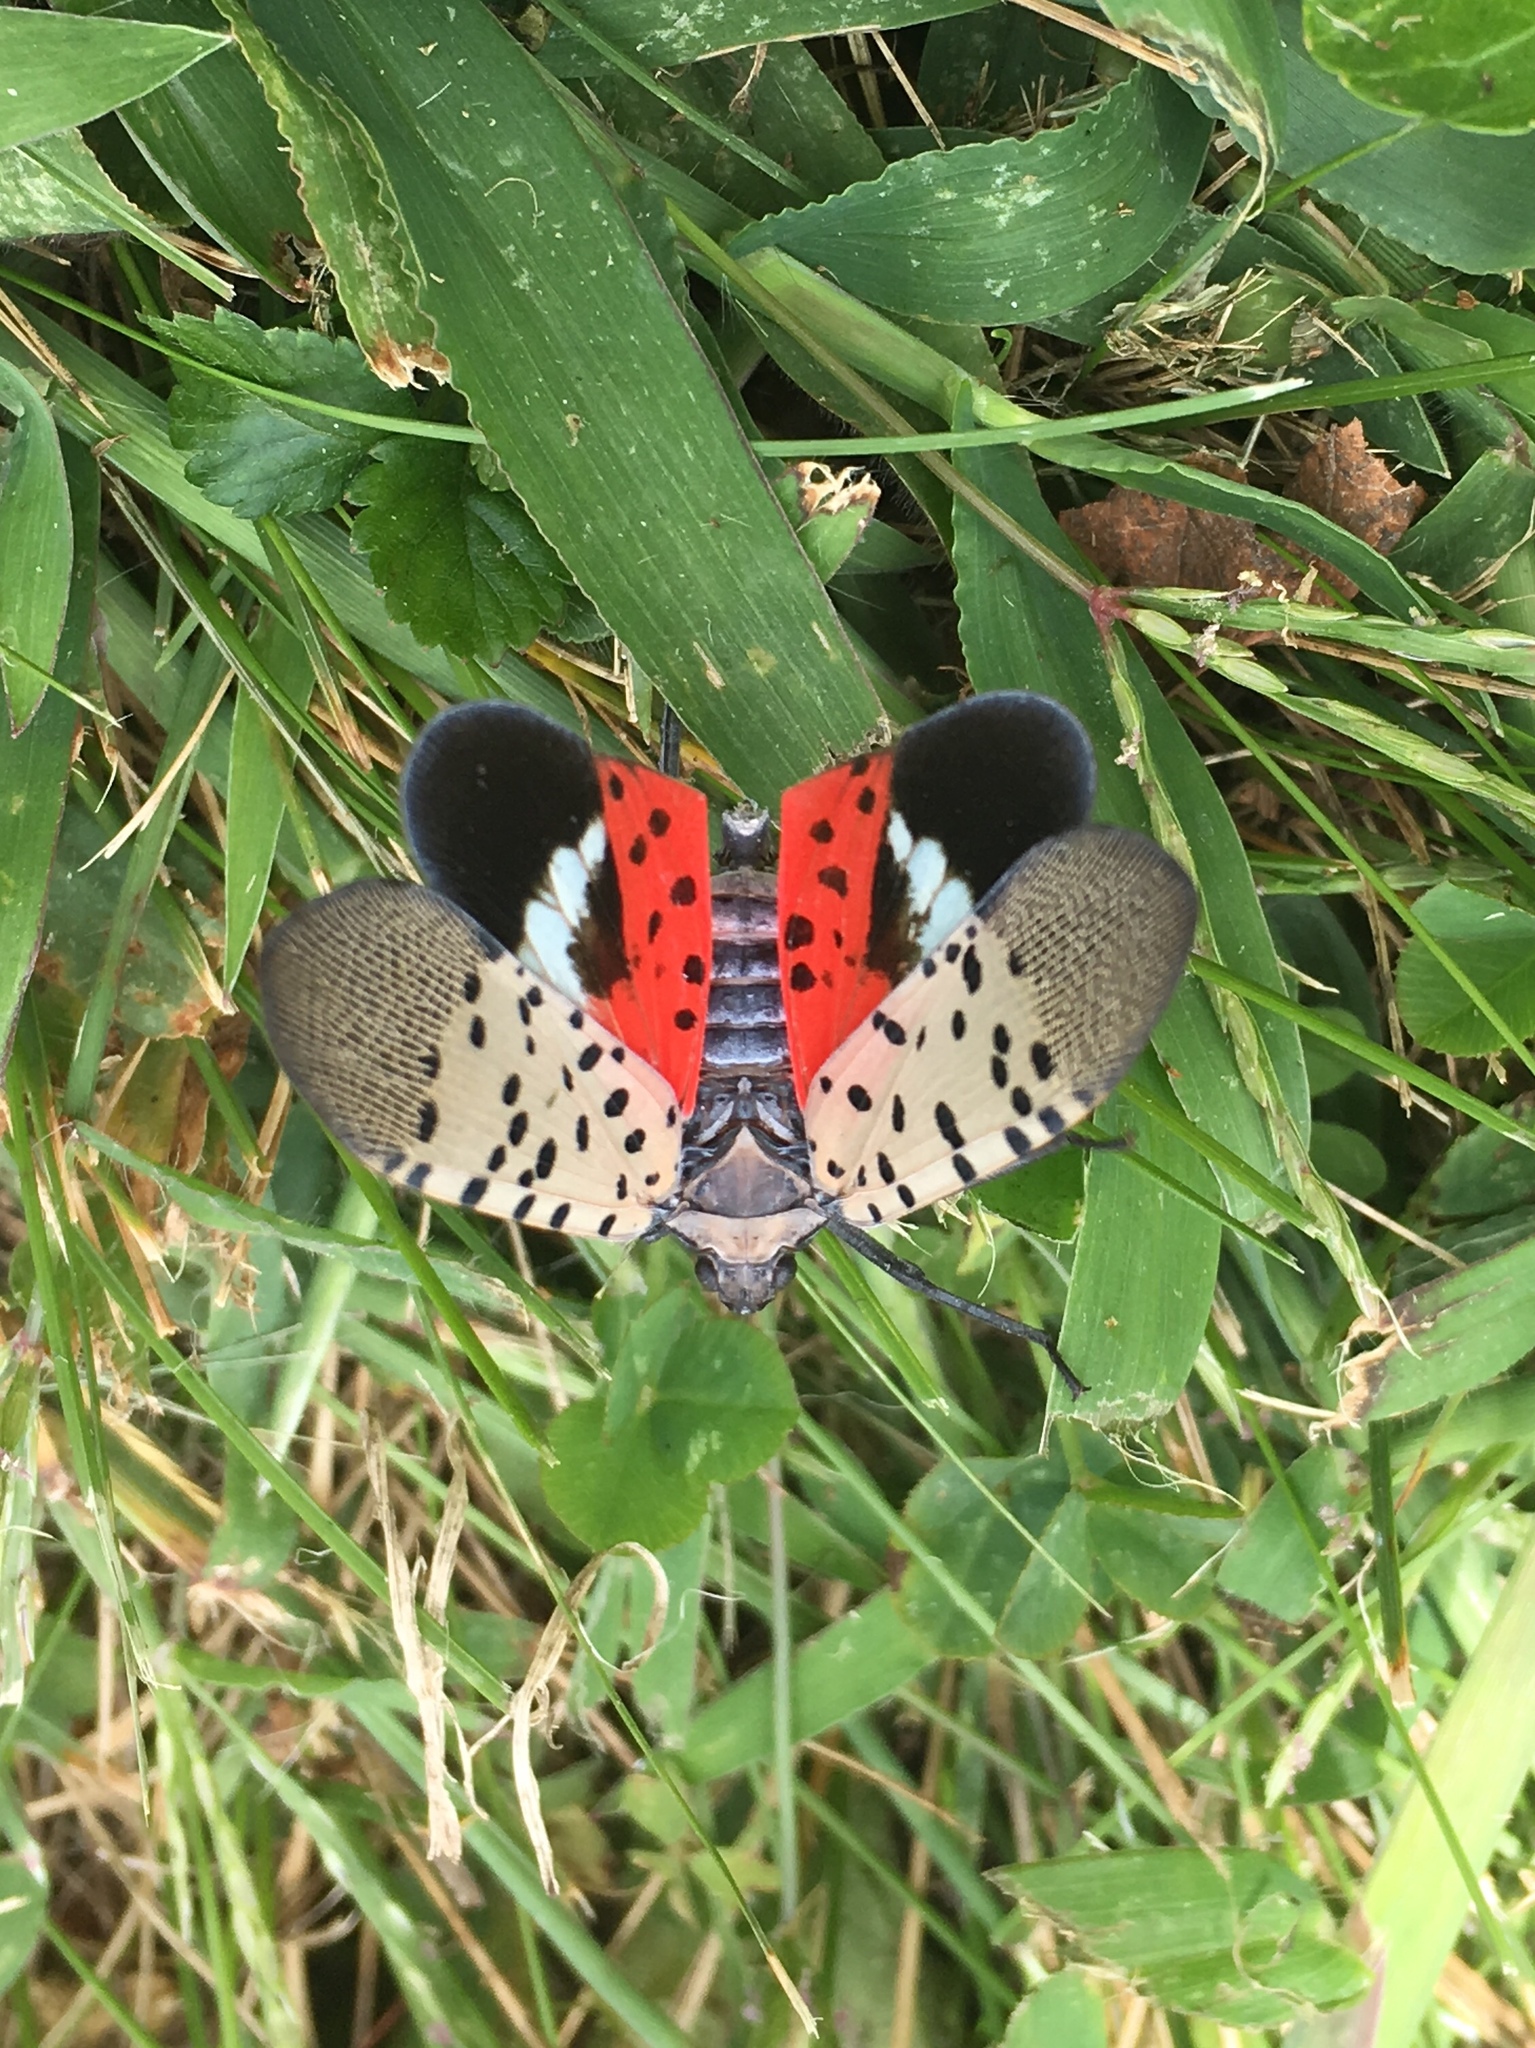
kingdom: Animalia
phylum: Arthropoda
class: Insecta
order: Hemiptera
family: Fulgoridae
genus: Lycorma
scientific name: Lycorma delicatula
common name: Spotted lanternfly
